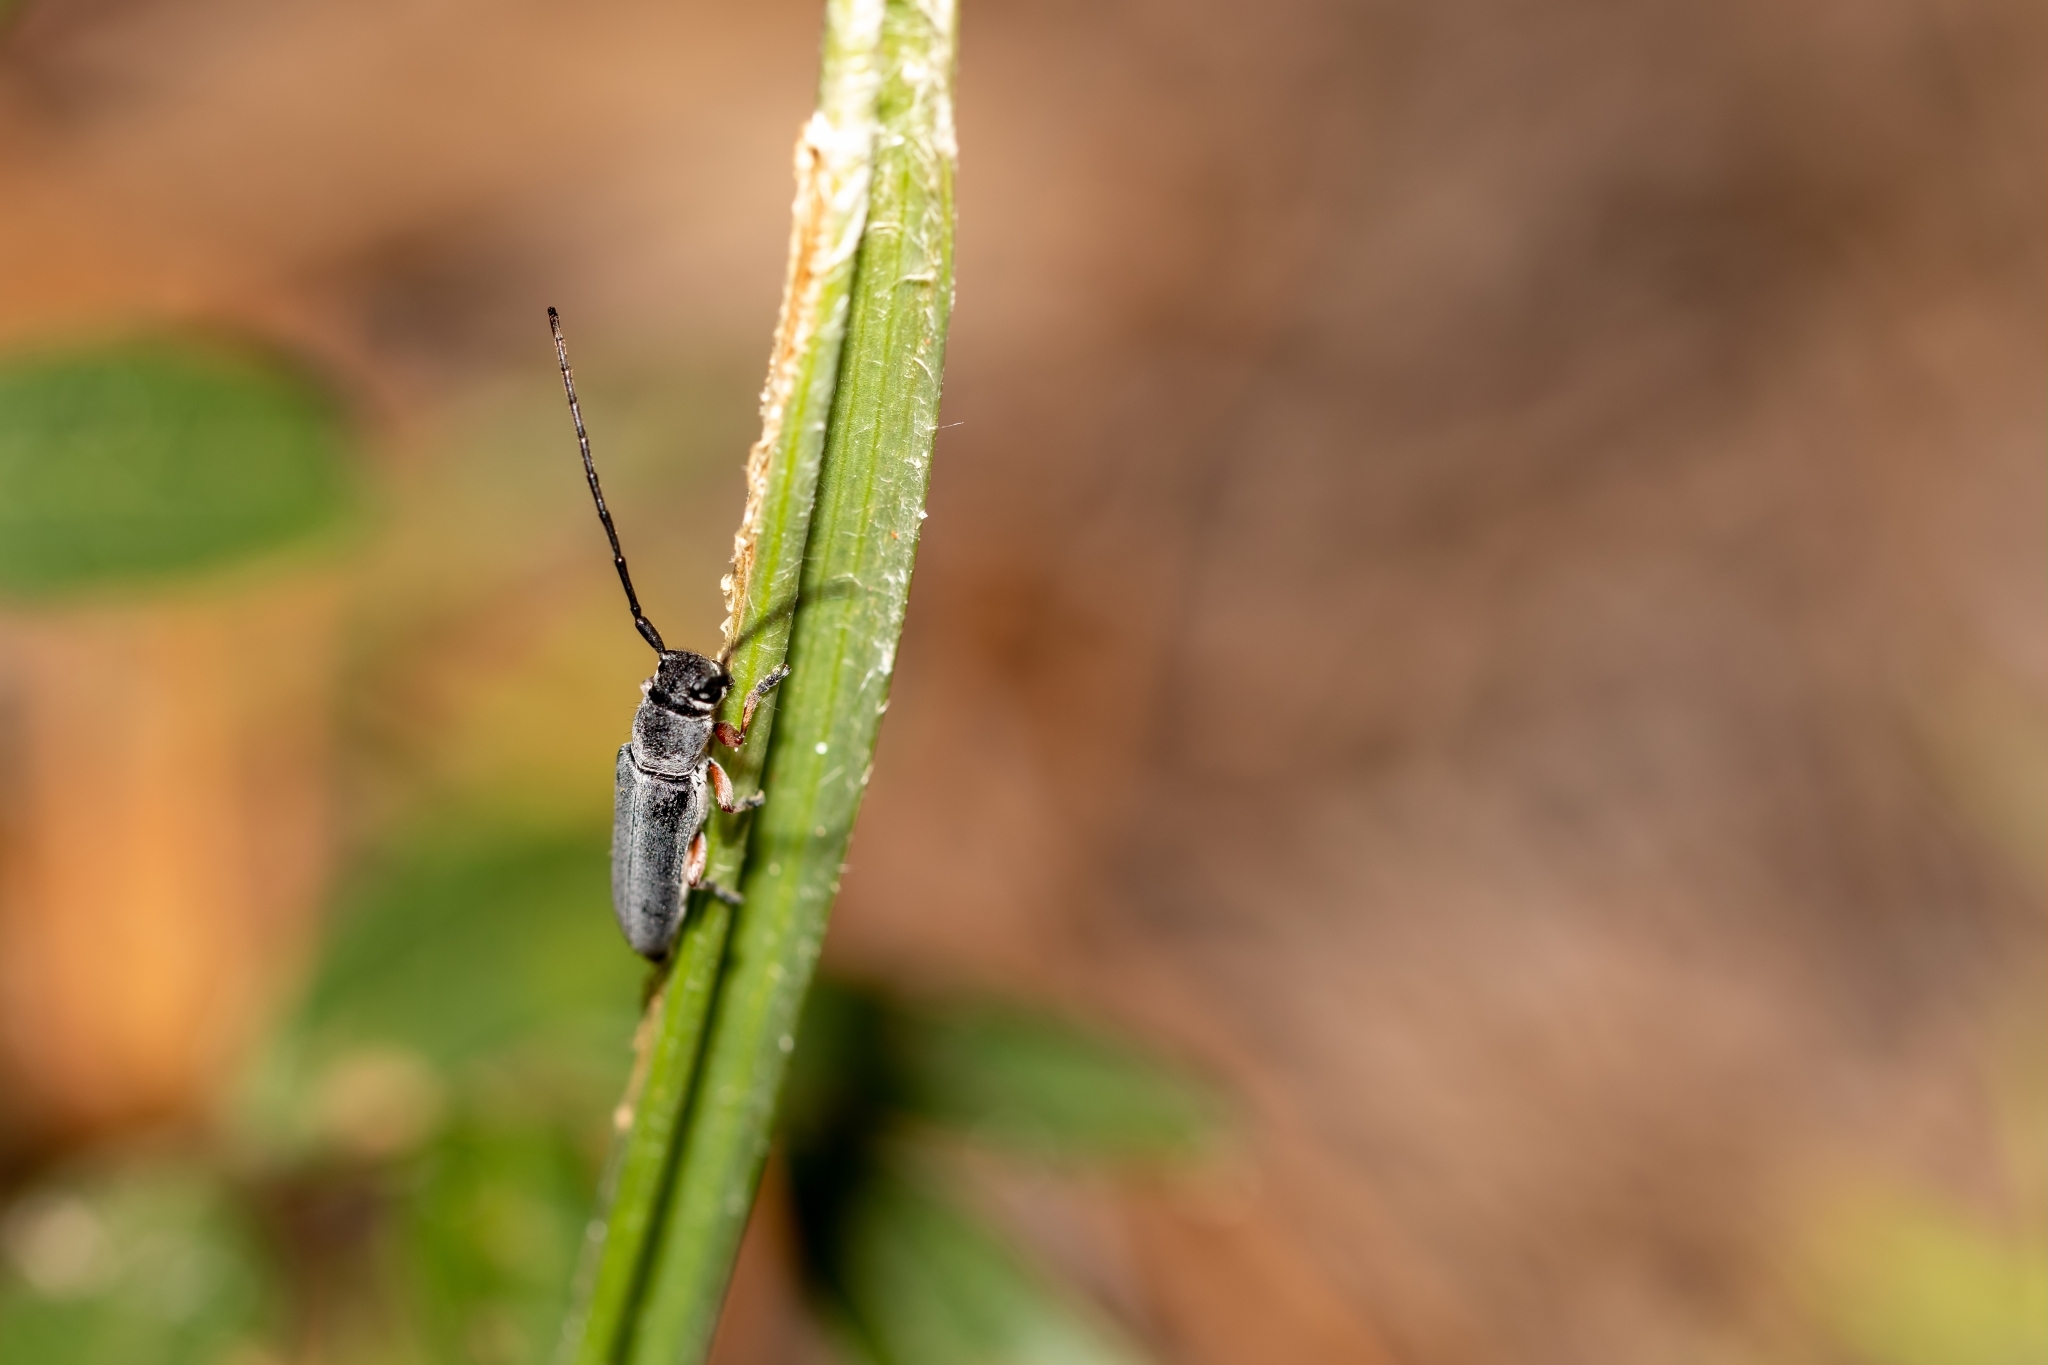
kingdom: Animalia
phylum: Arthropoda
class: Insecta
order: Coleoptera
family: Cerambycidae
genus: Mecas
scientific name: Mecas femoralis
